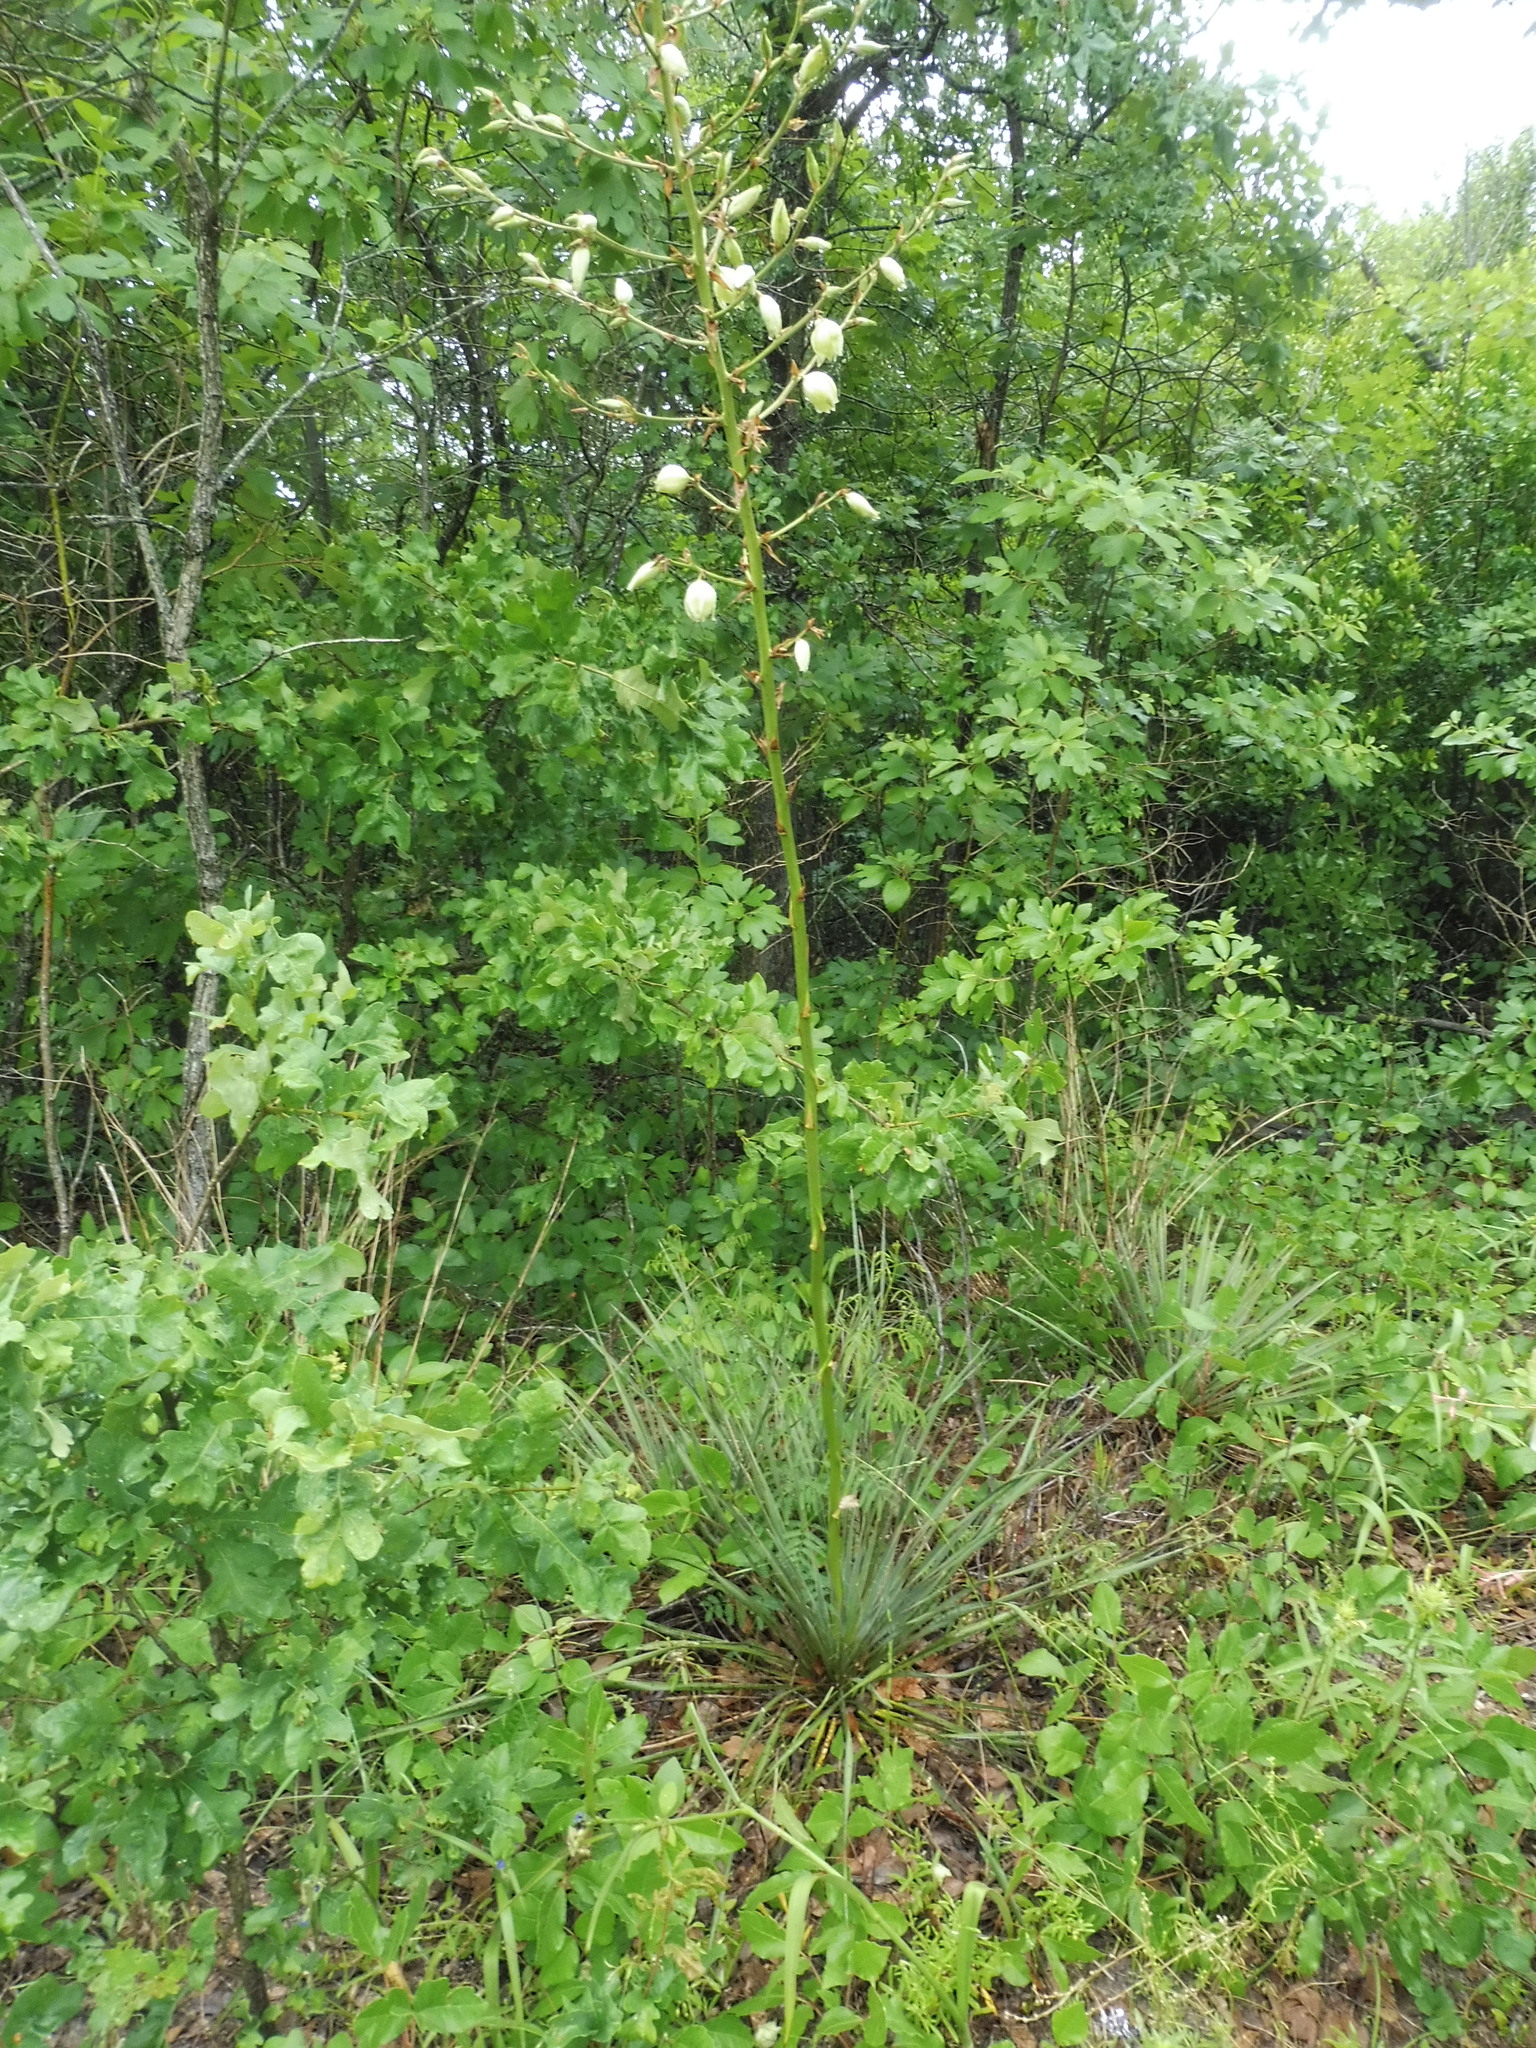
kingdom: Plantae
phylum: Tracheophyta
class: Liliopsida
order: Asparagales
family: Asparagaceae
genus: Yucca
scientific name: Yucca flaccida
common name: Adam's-needle
